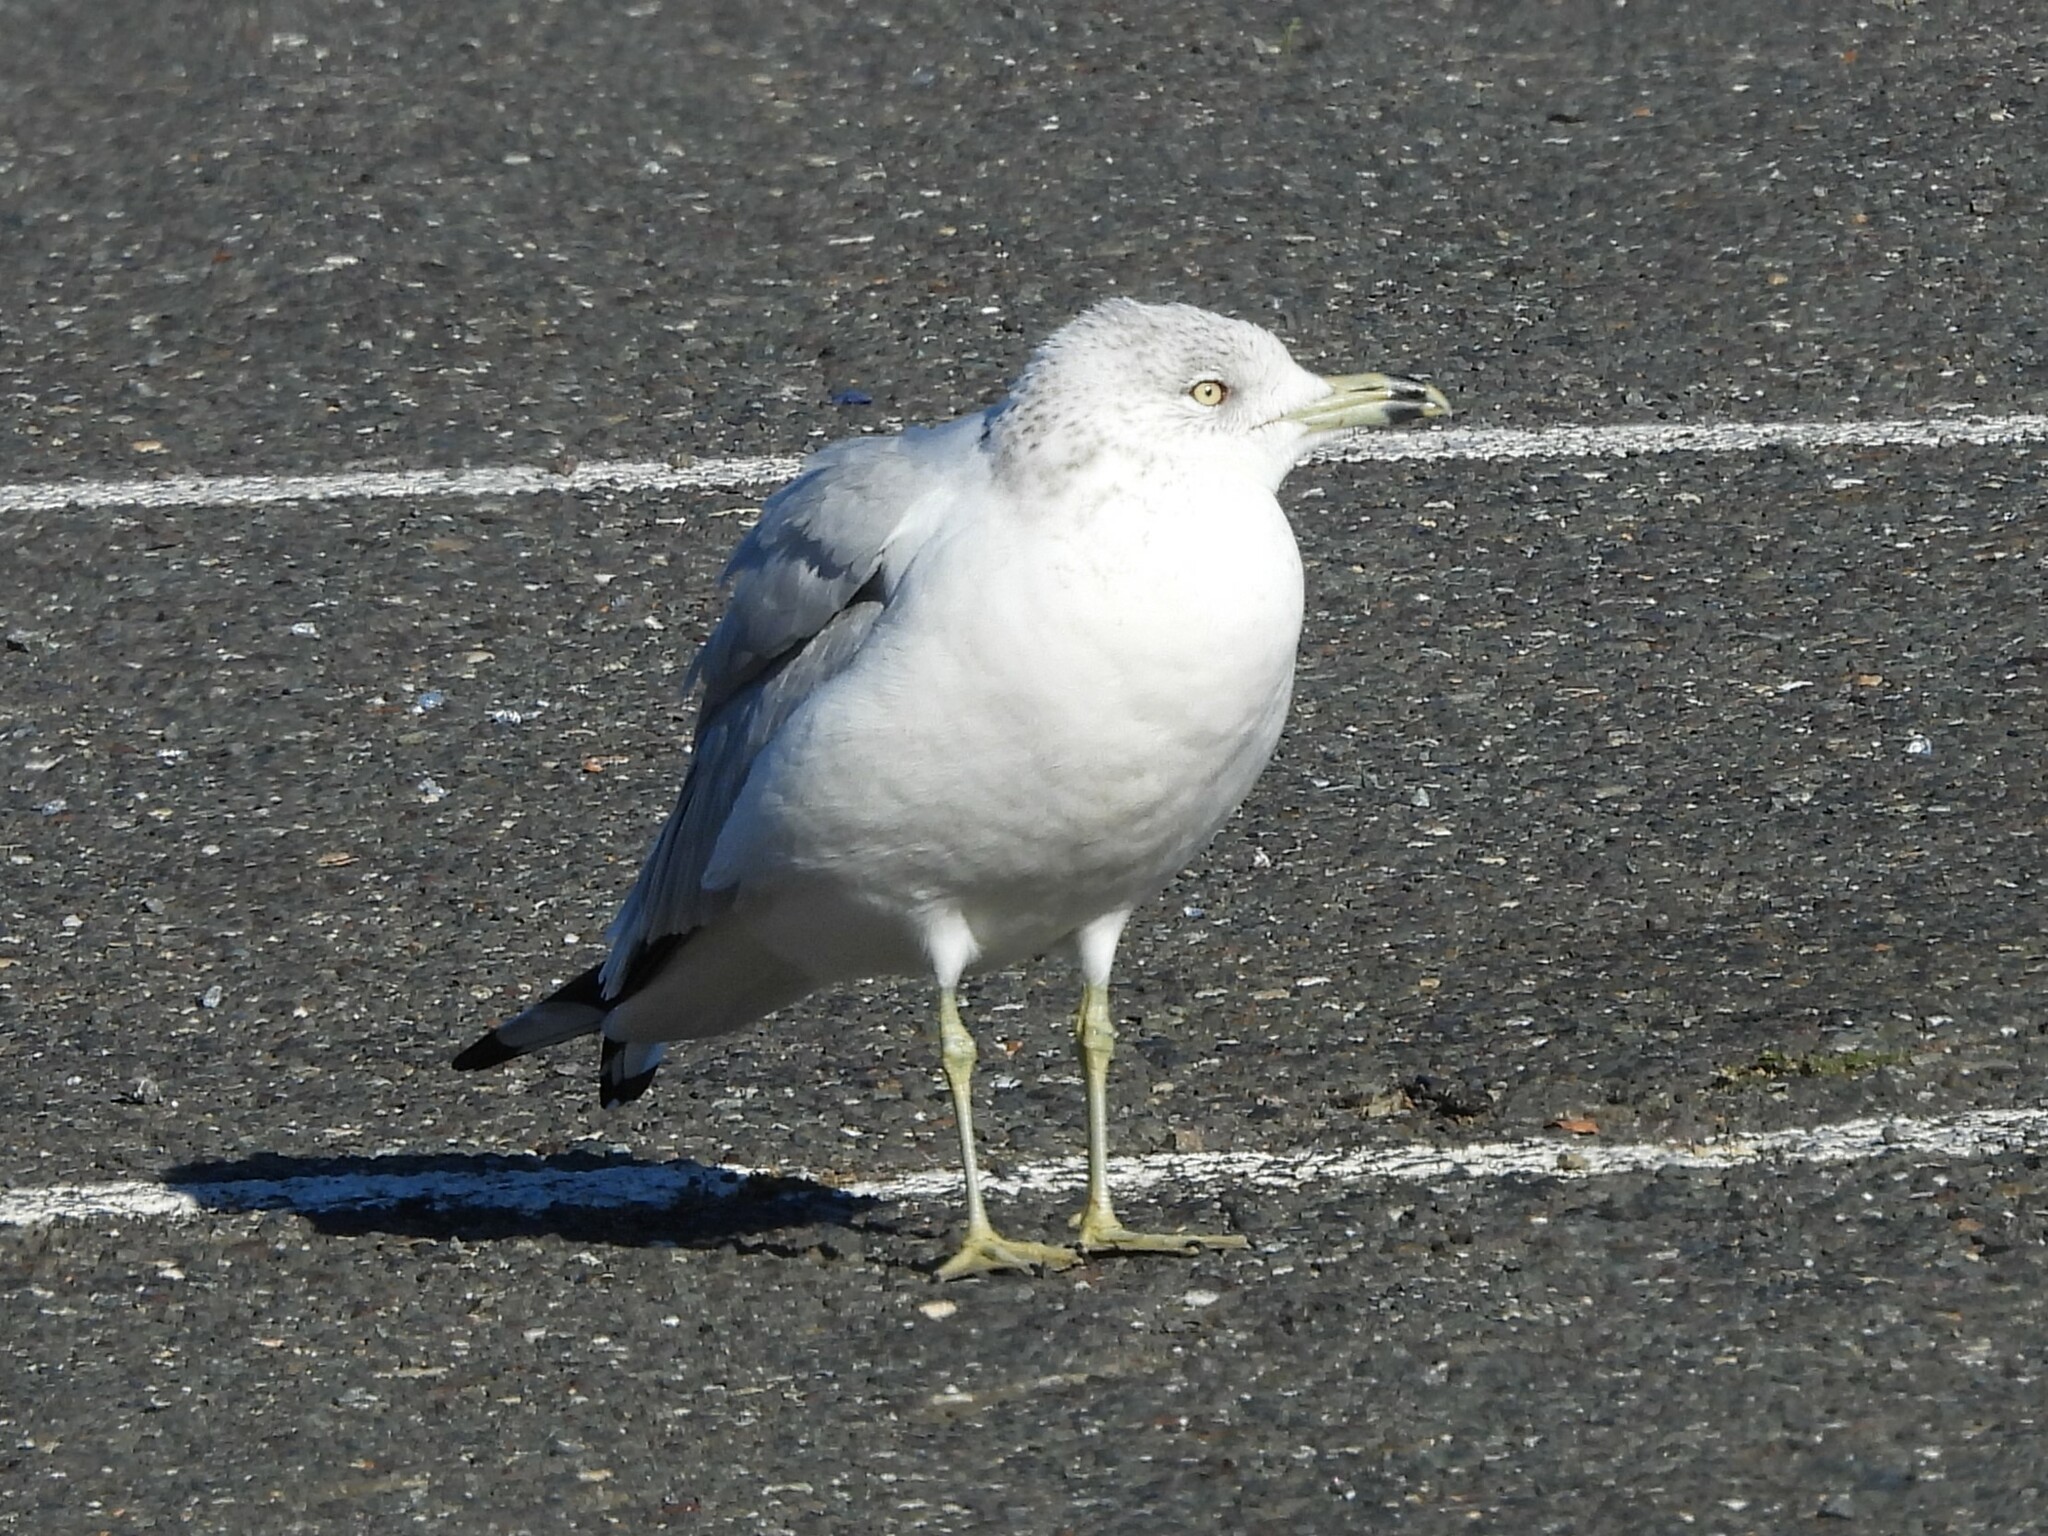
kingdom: Animalia
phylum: Chordata
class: Aves
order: Charadriiformes
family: Laridae
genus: Larus
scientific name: Larus delawarensis
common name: Ring-billed gull
